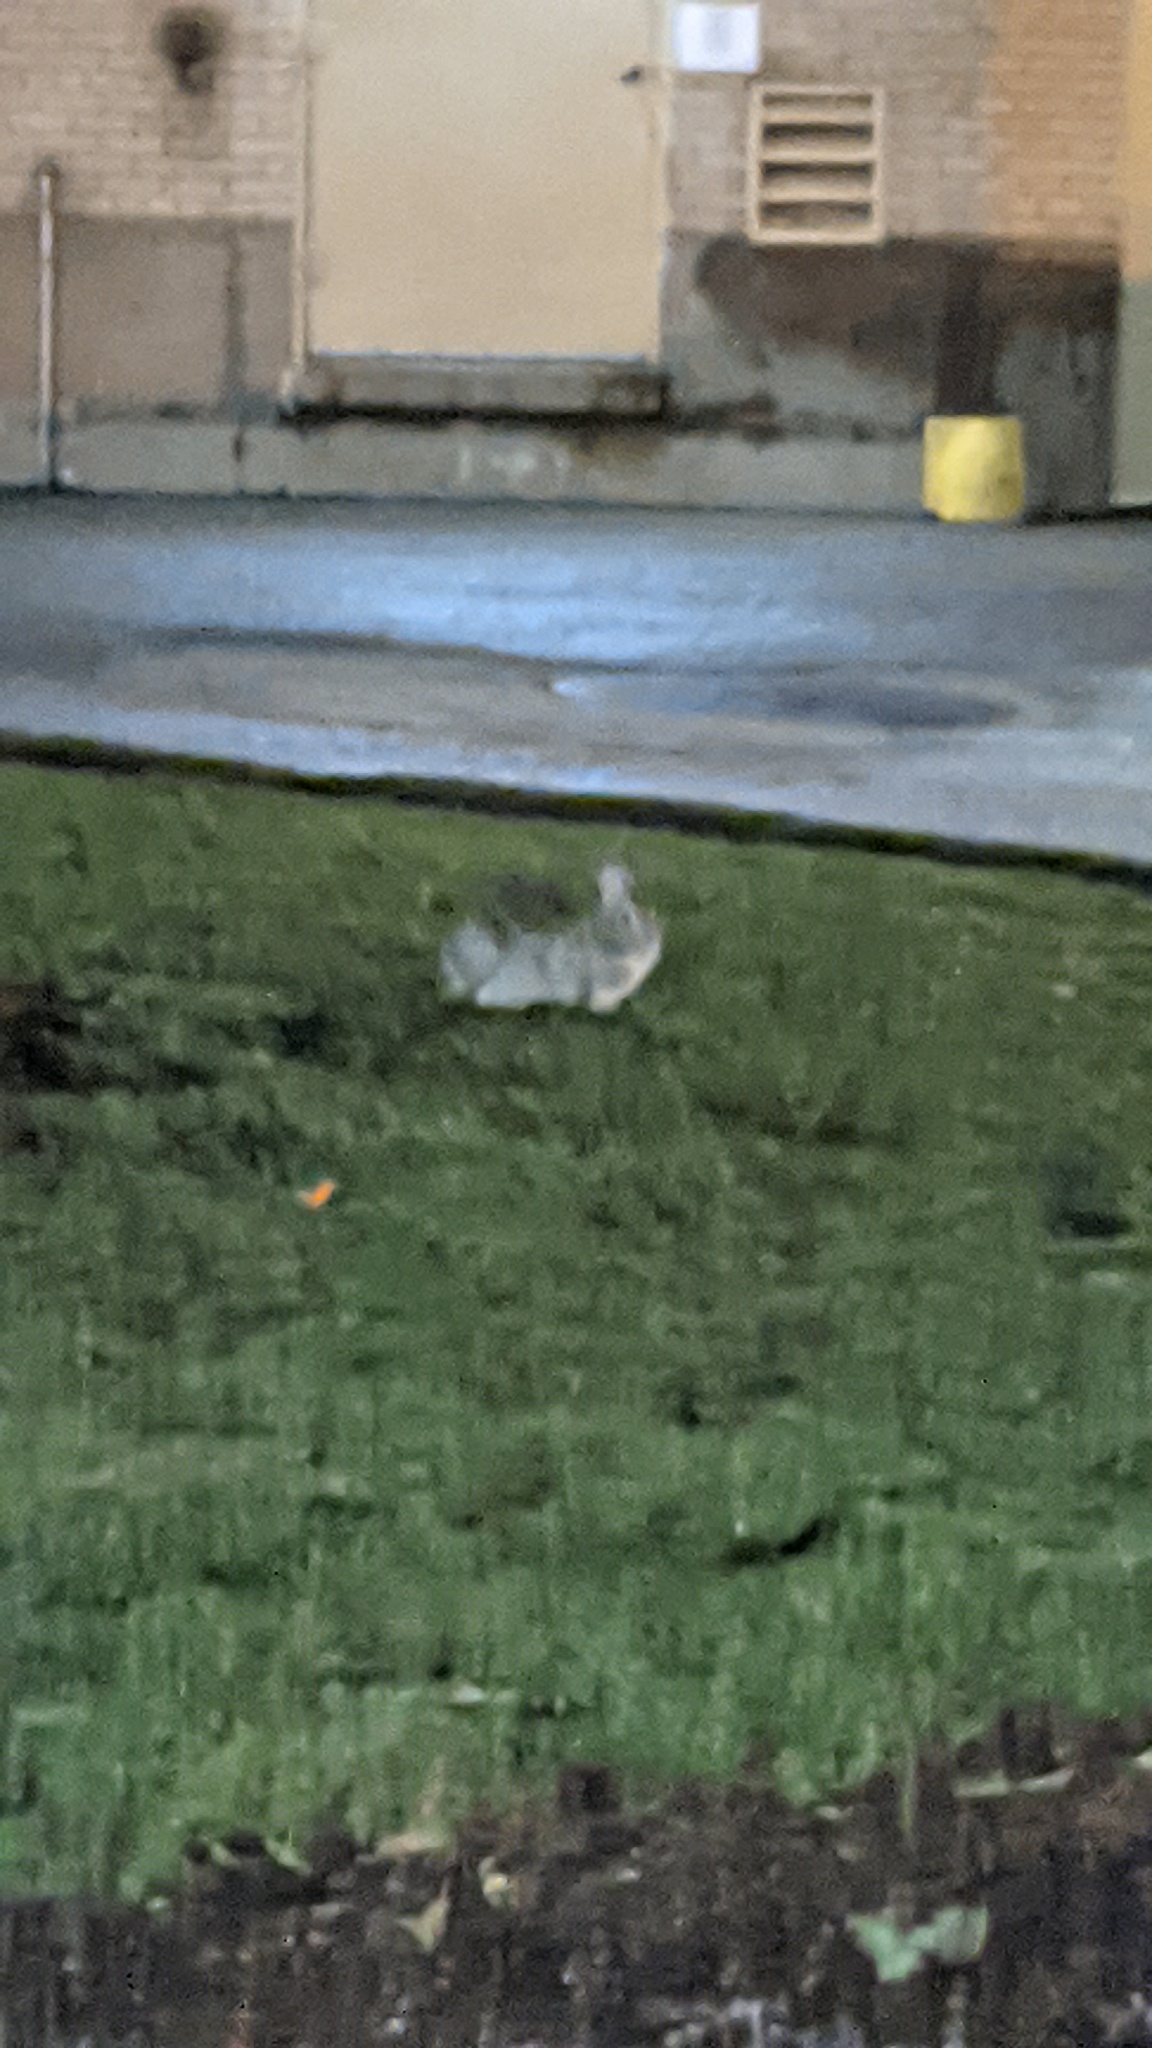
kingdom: Animalia
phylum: Chordata
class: Mammalia
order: Lagomorpha
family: Leporidae
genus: Sylvilagus
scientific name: Sylvilagus floridanus
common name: Eastern cottontail
